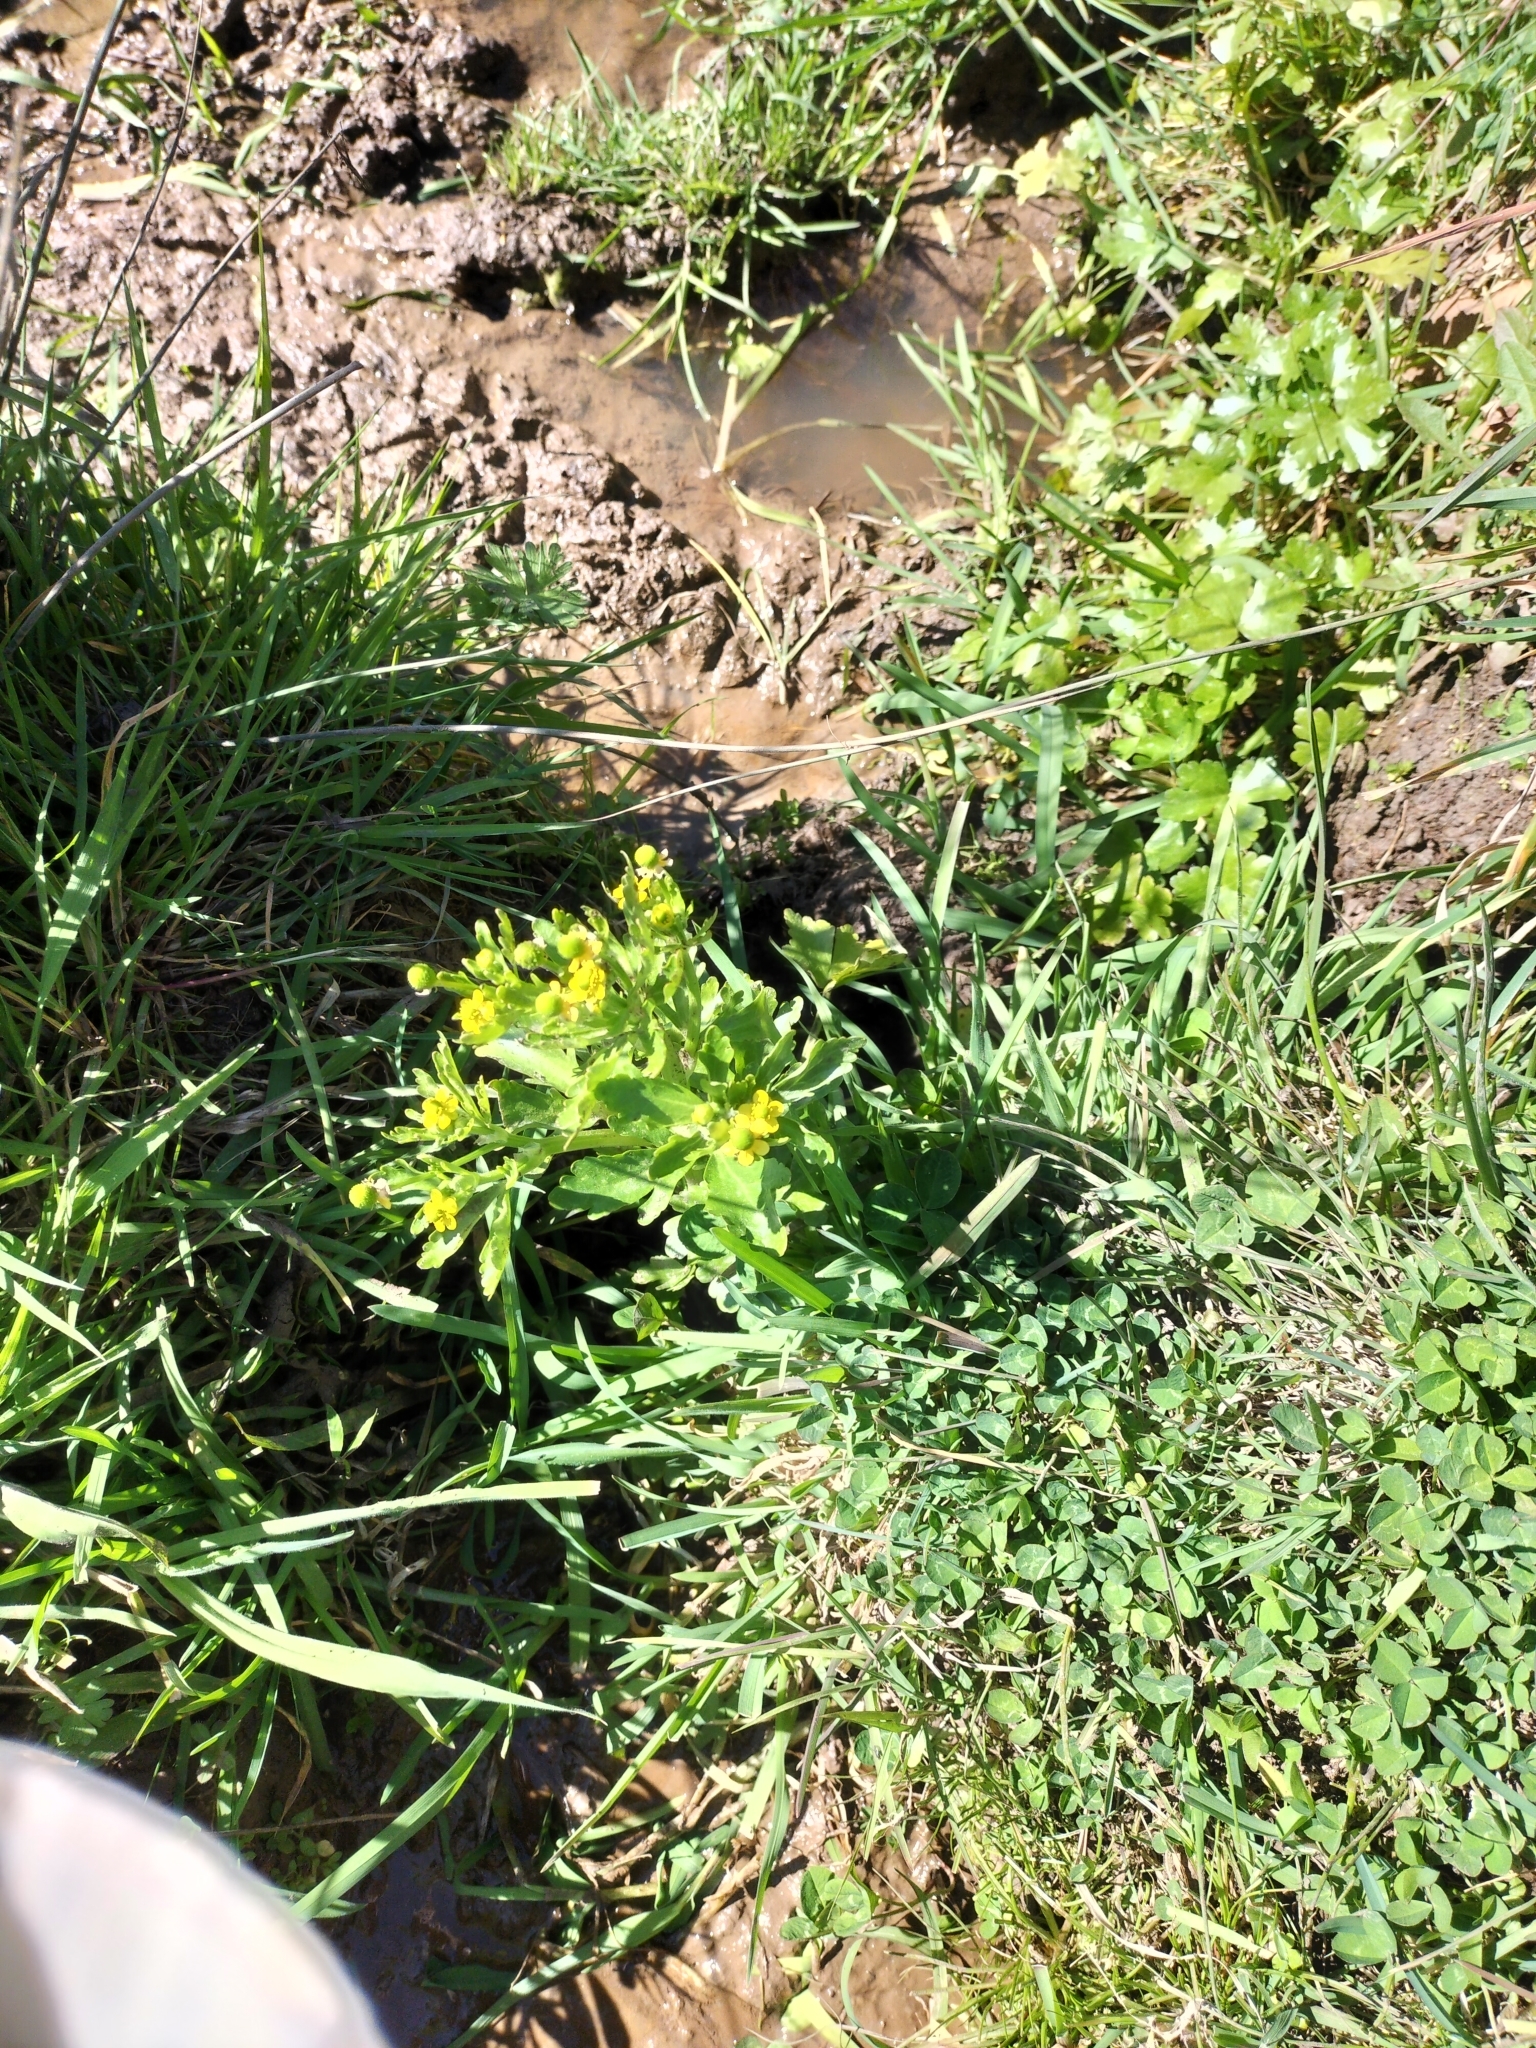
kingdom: Plantae
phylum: Tracheophyta
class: Magnoliopsida
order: Ranunculales
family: Ranunculaceae
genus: Ranunculus
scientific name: Ranunculus sceleratus
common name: Celery-leaved buttercup
